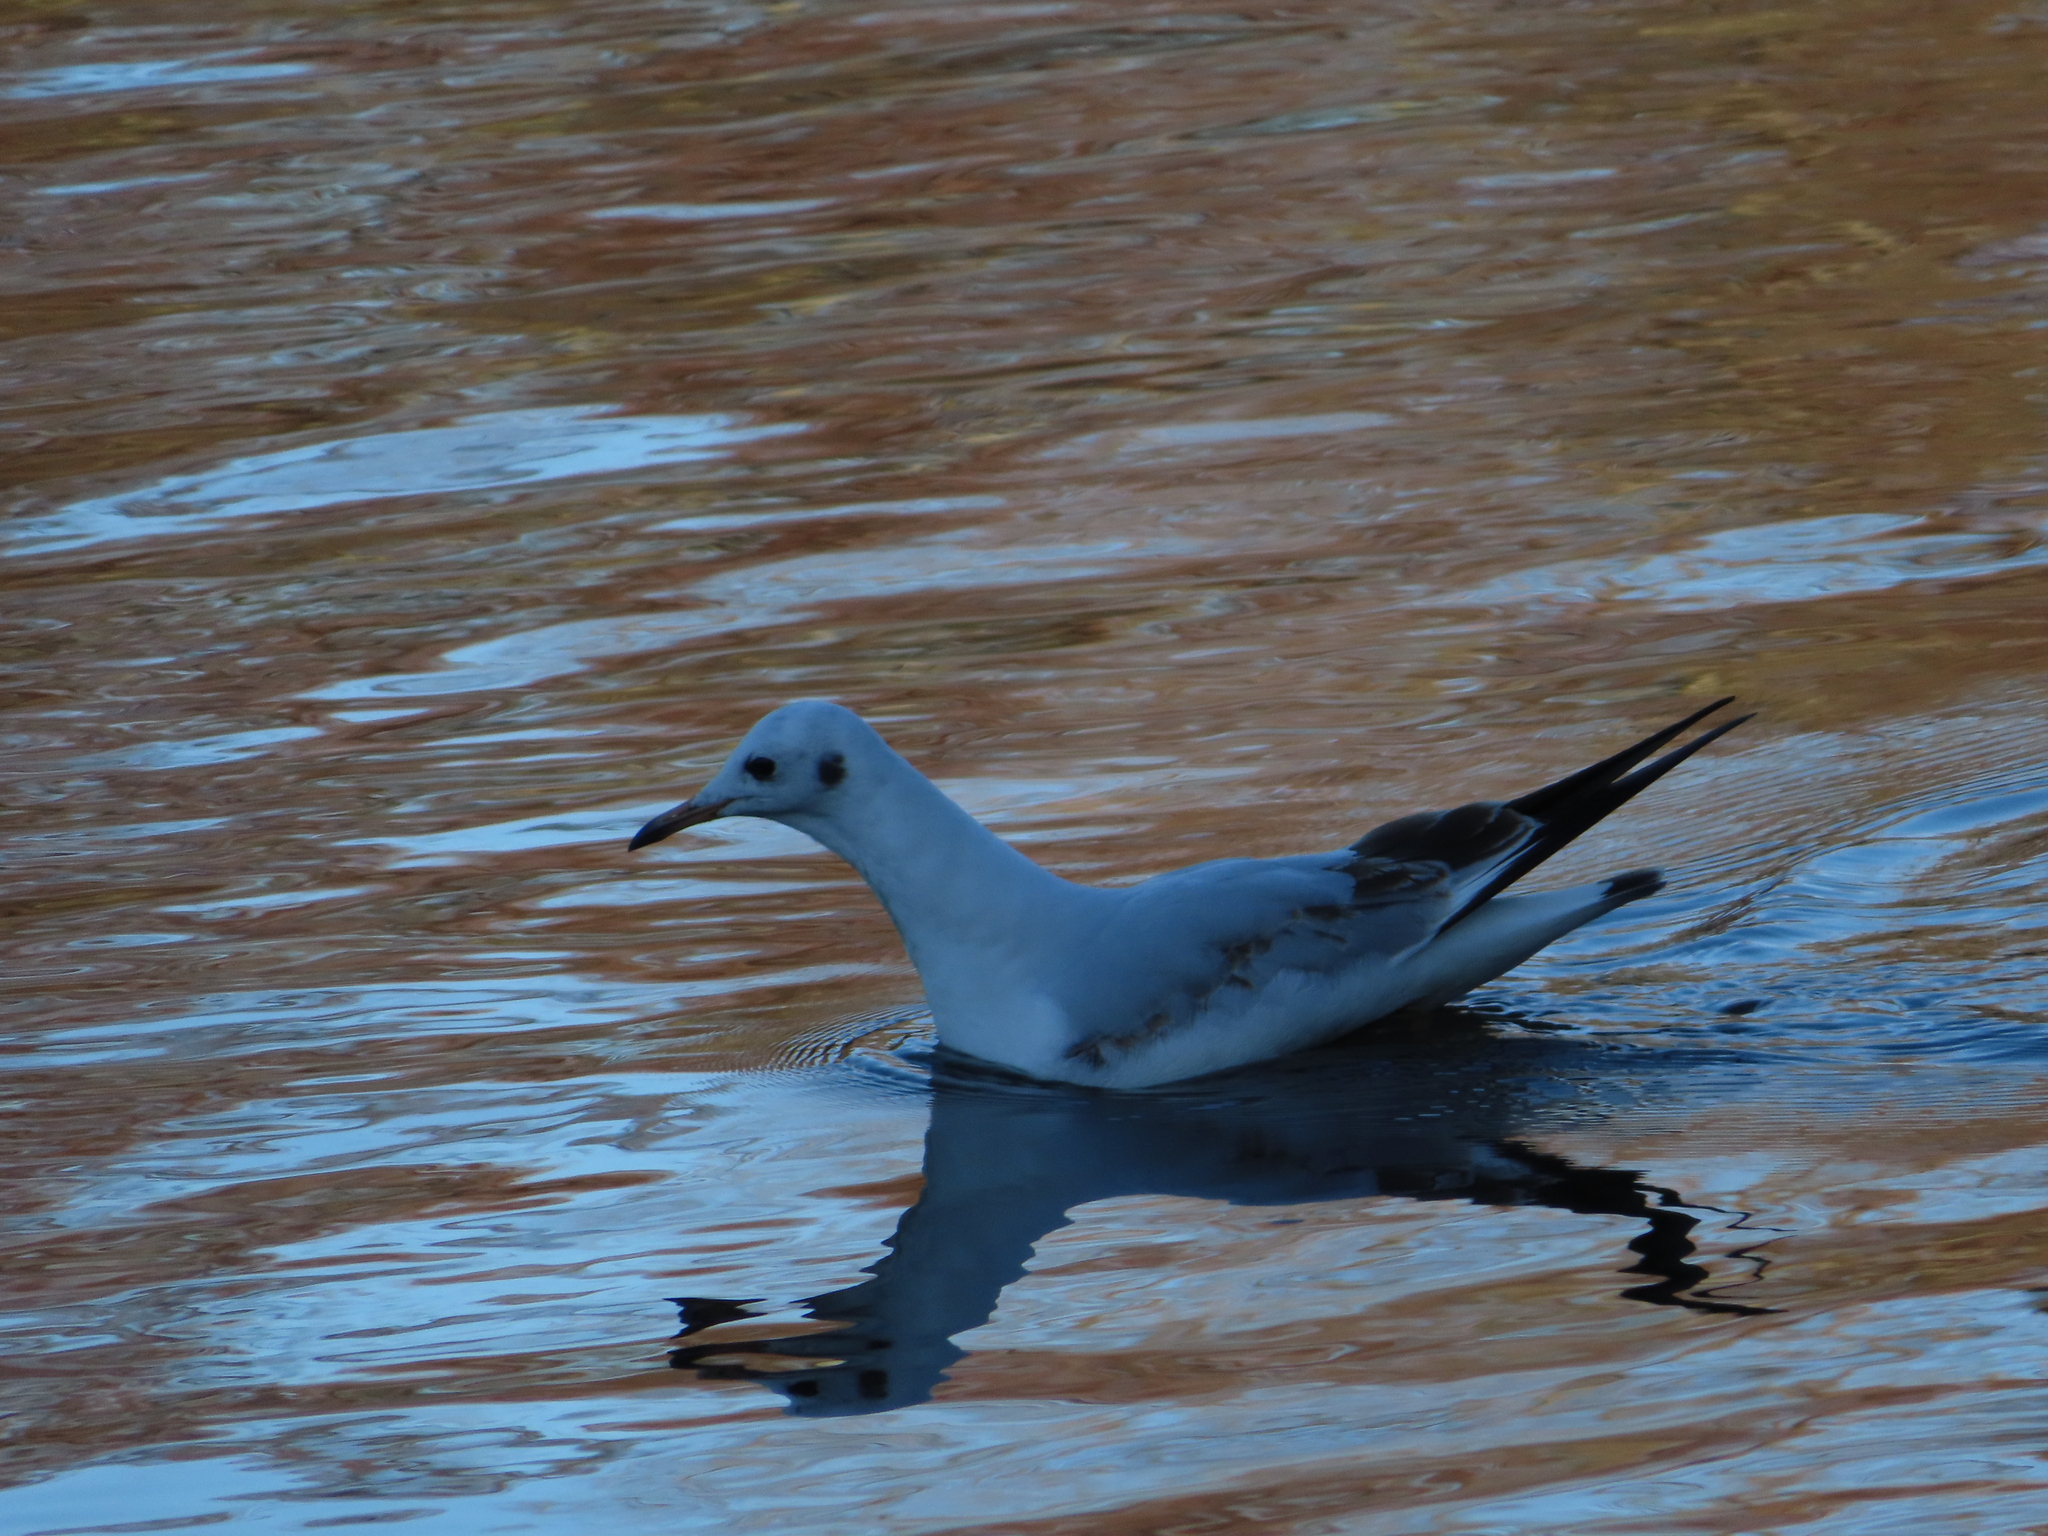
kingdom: Animalia
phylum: Chordata
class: Aves
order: Charadriiformes
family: Laridae
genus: Chroicocephalus
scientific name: Chroicocephalus ridibundus
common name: Black-headed gull
